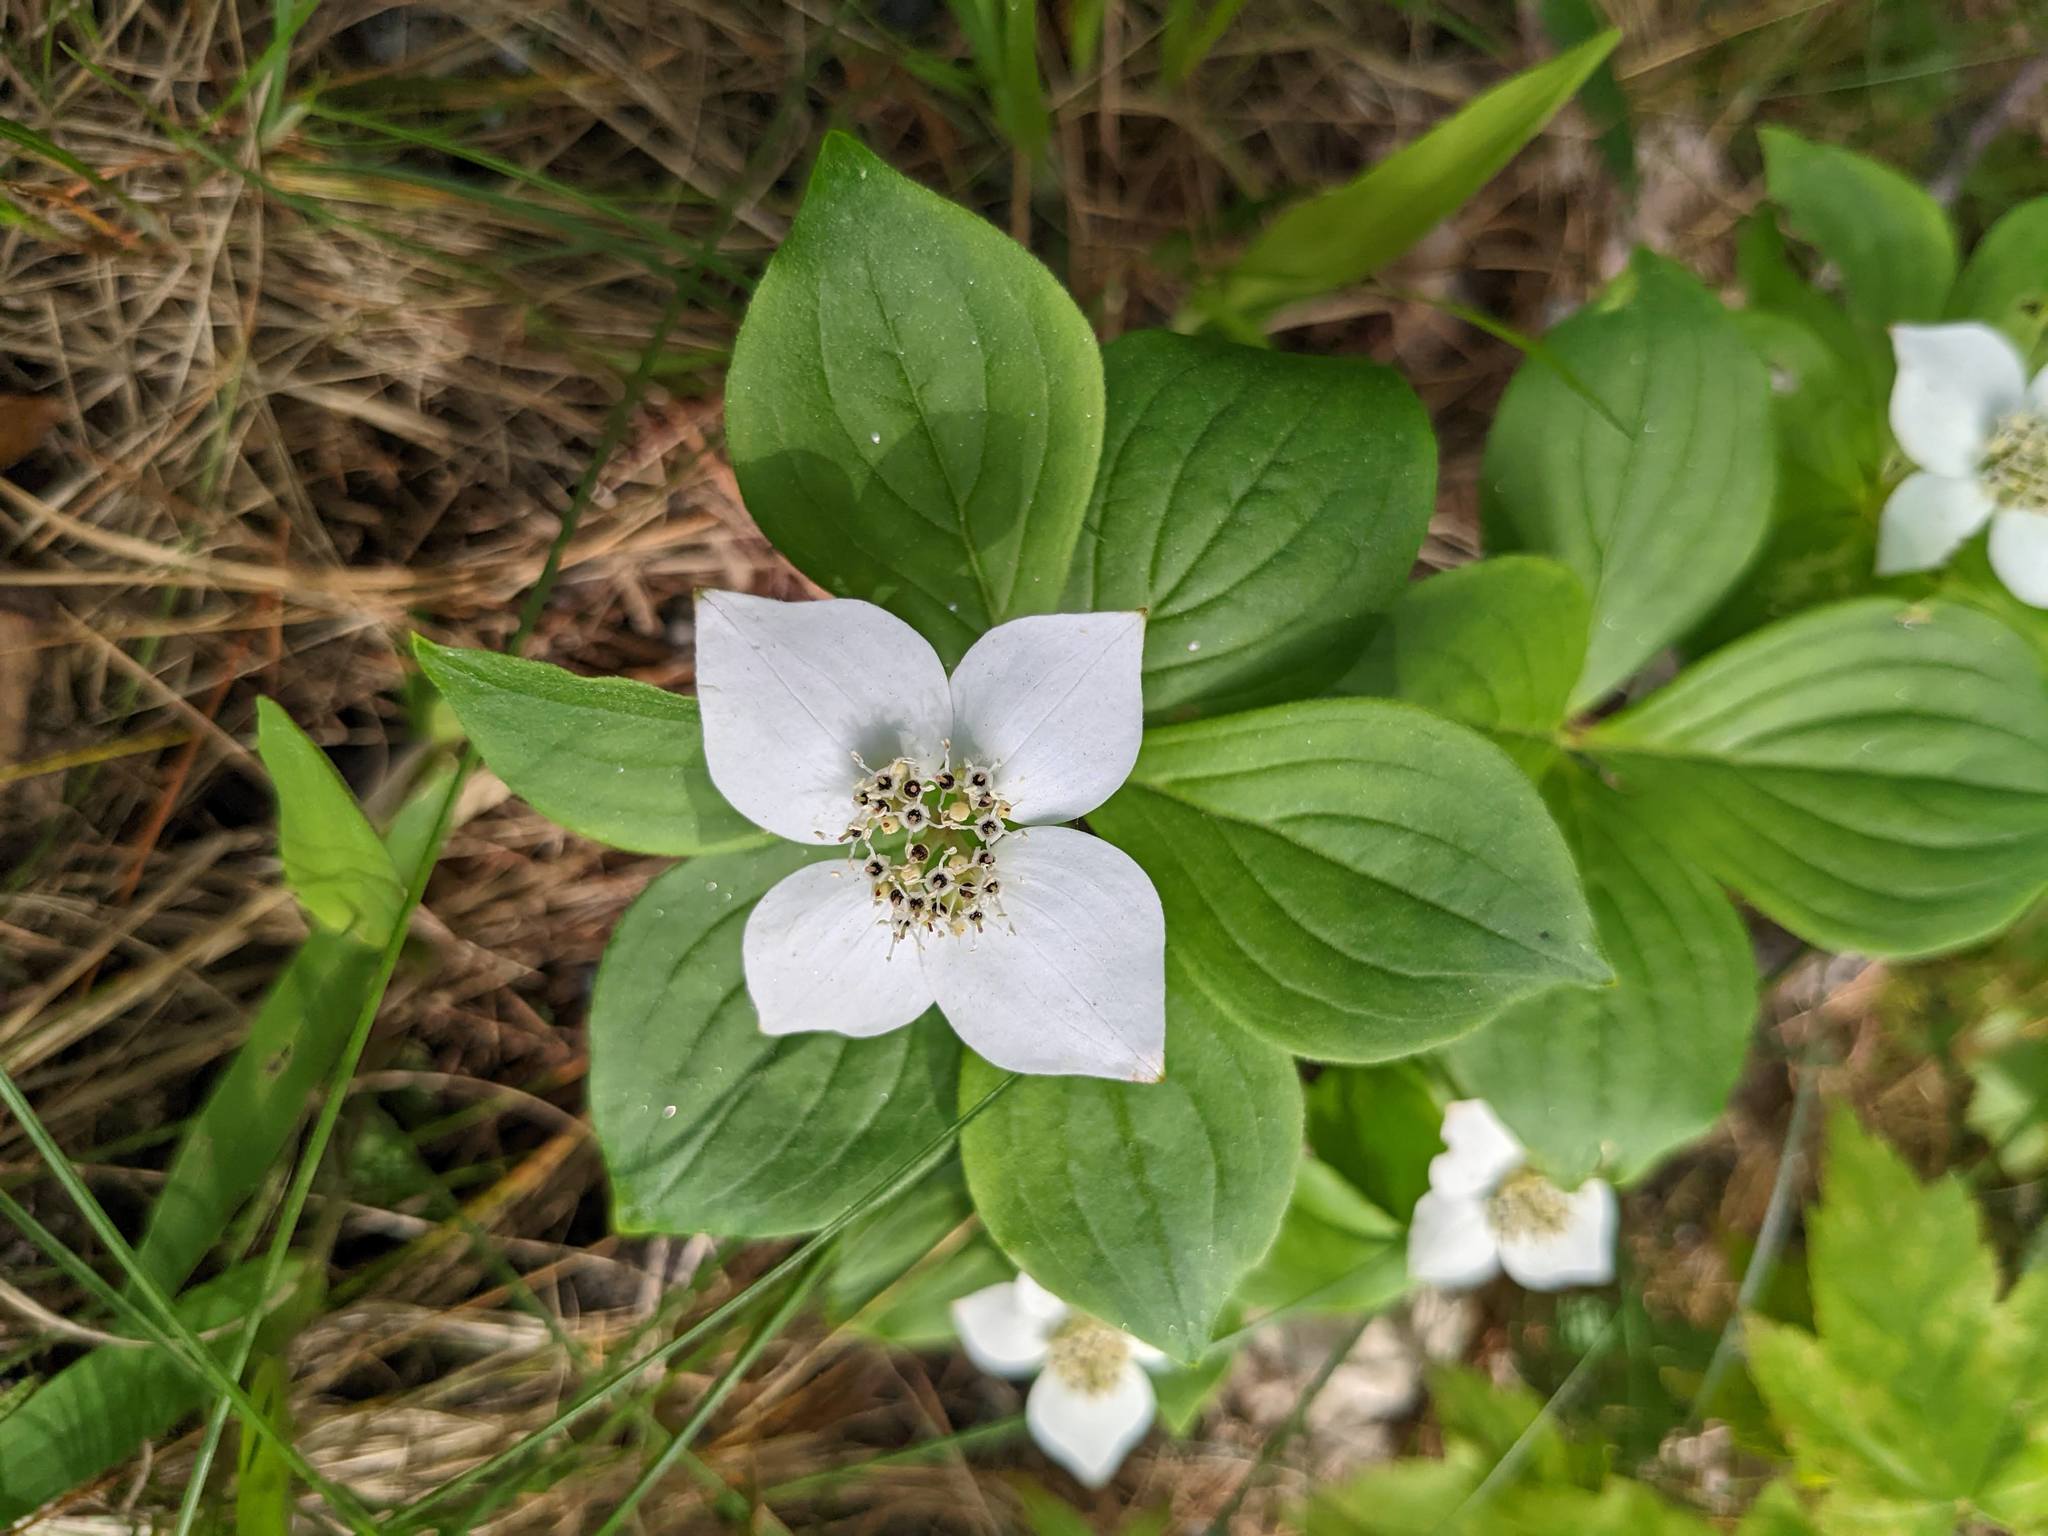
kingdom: Plantae
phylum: Tracheophyta
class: Magnoliopsida
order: Cornales
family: Cornaceae
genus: Cornus
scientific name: Cornus canadensis
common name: Creeping dogwood
